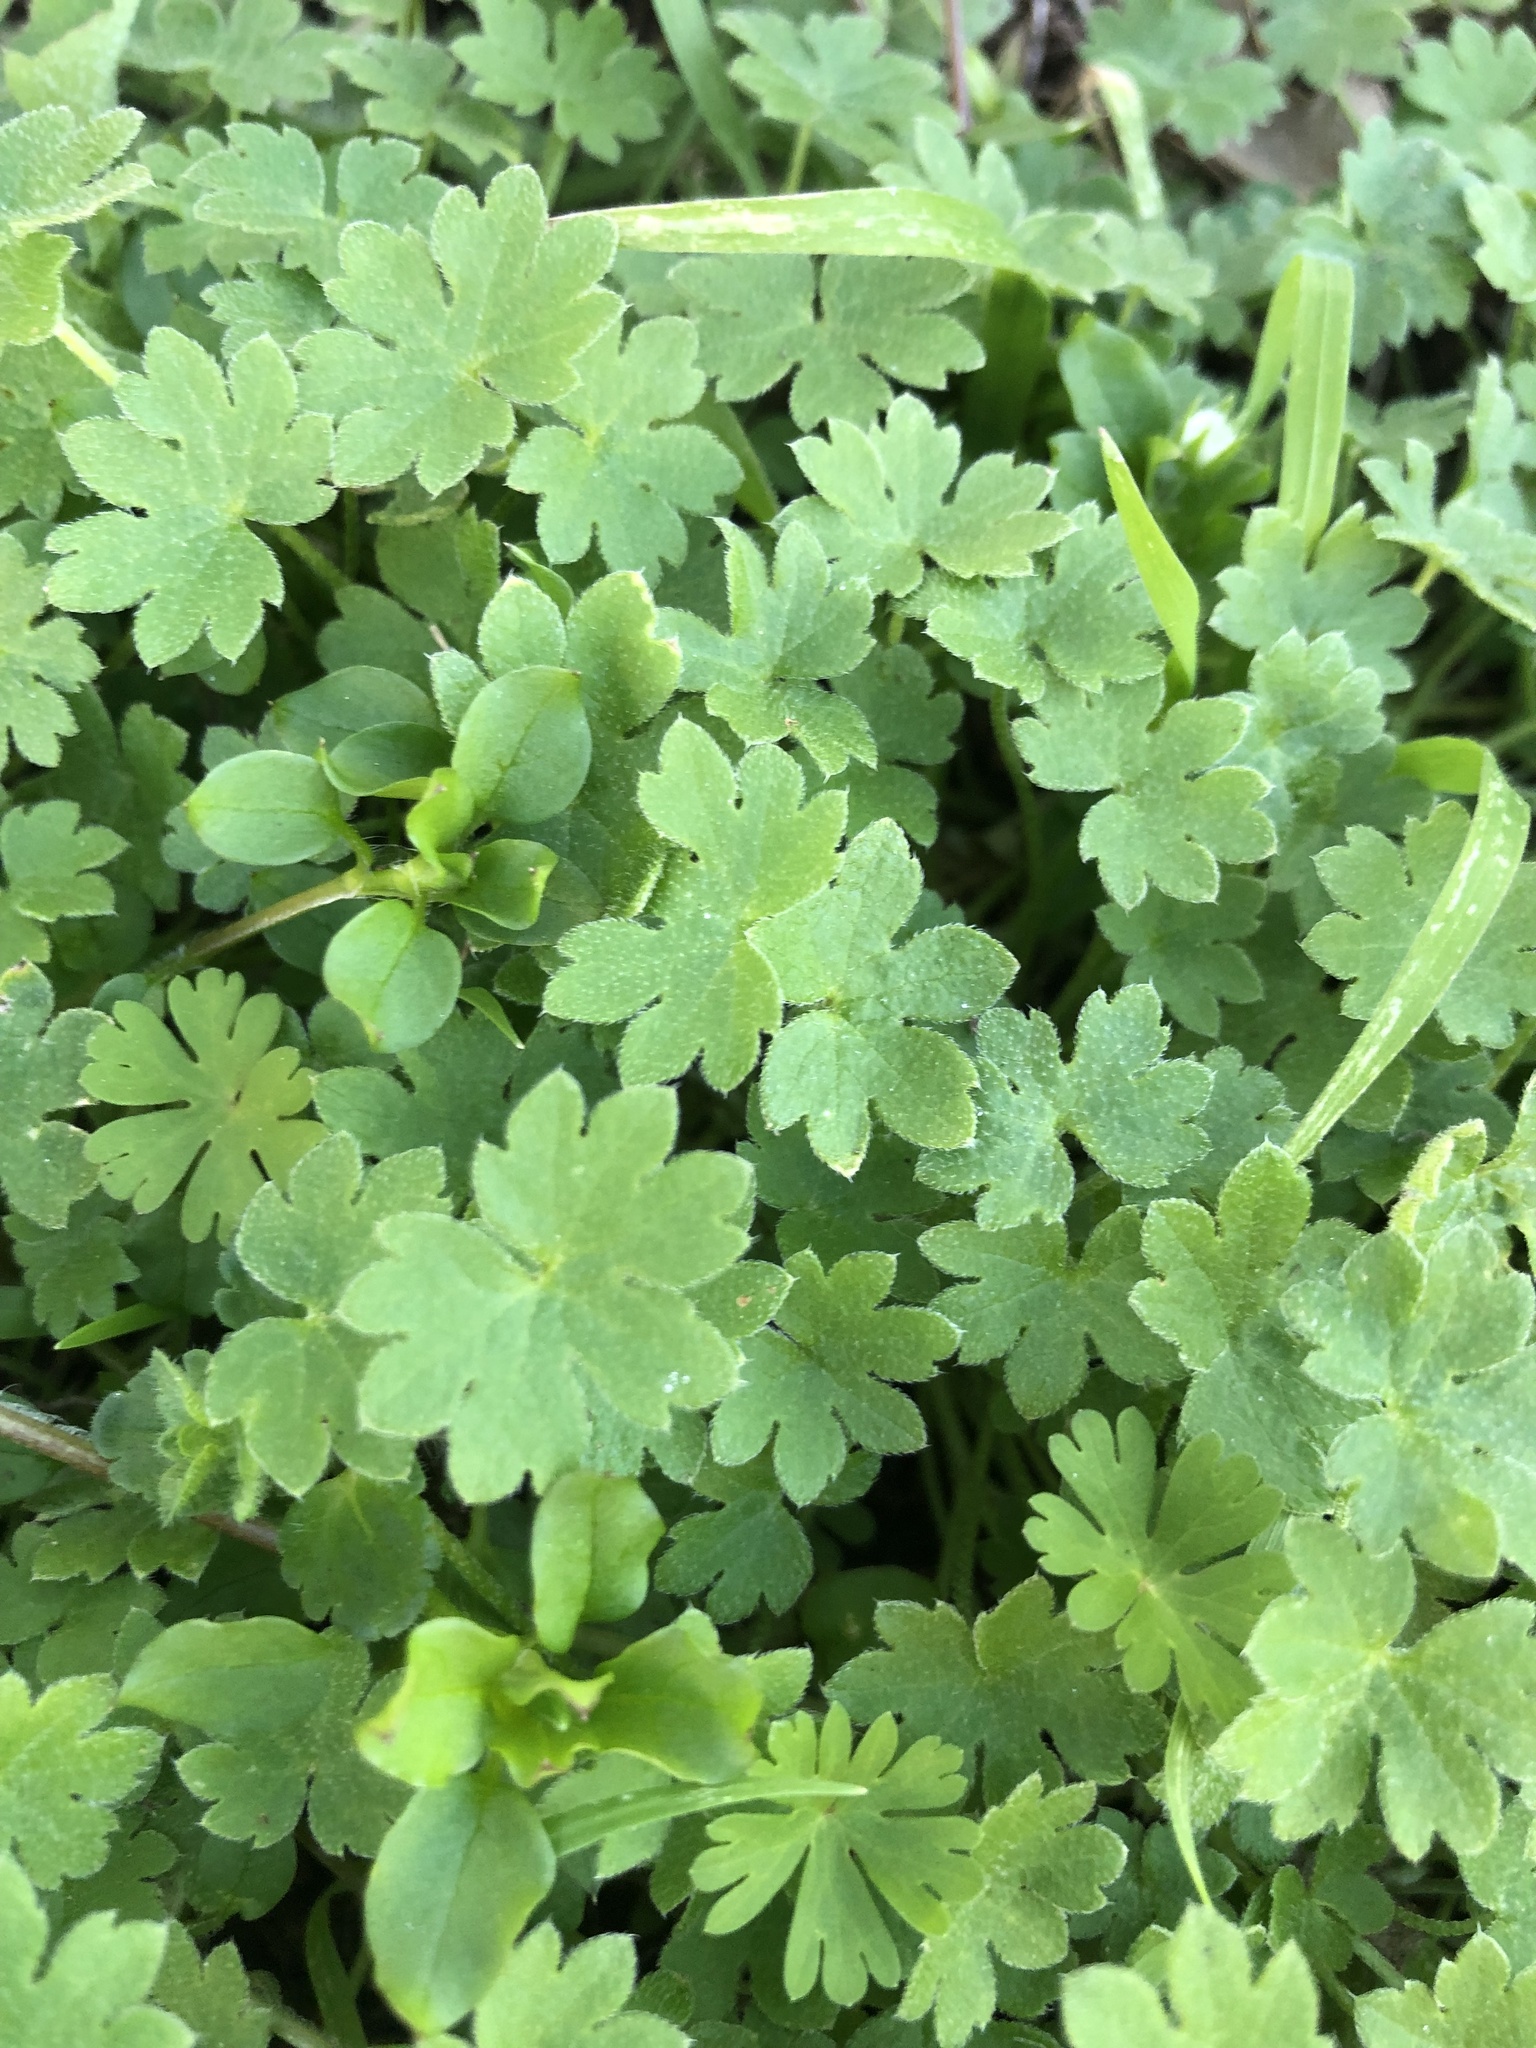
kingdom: Plantae
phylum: Tracheophyta
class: Magnoliopsida
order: Apiales
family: Apiaceae
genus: Bowlesia
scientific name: Bowlesia incana
